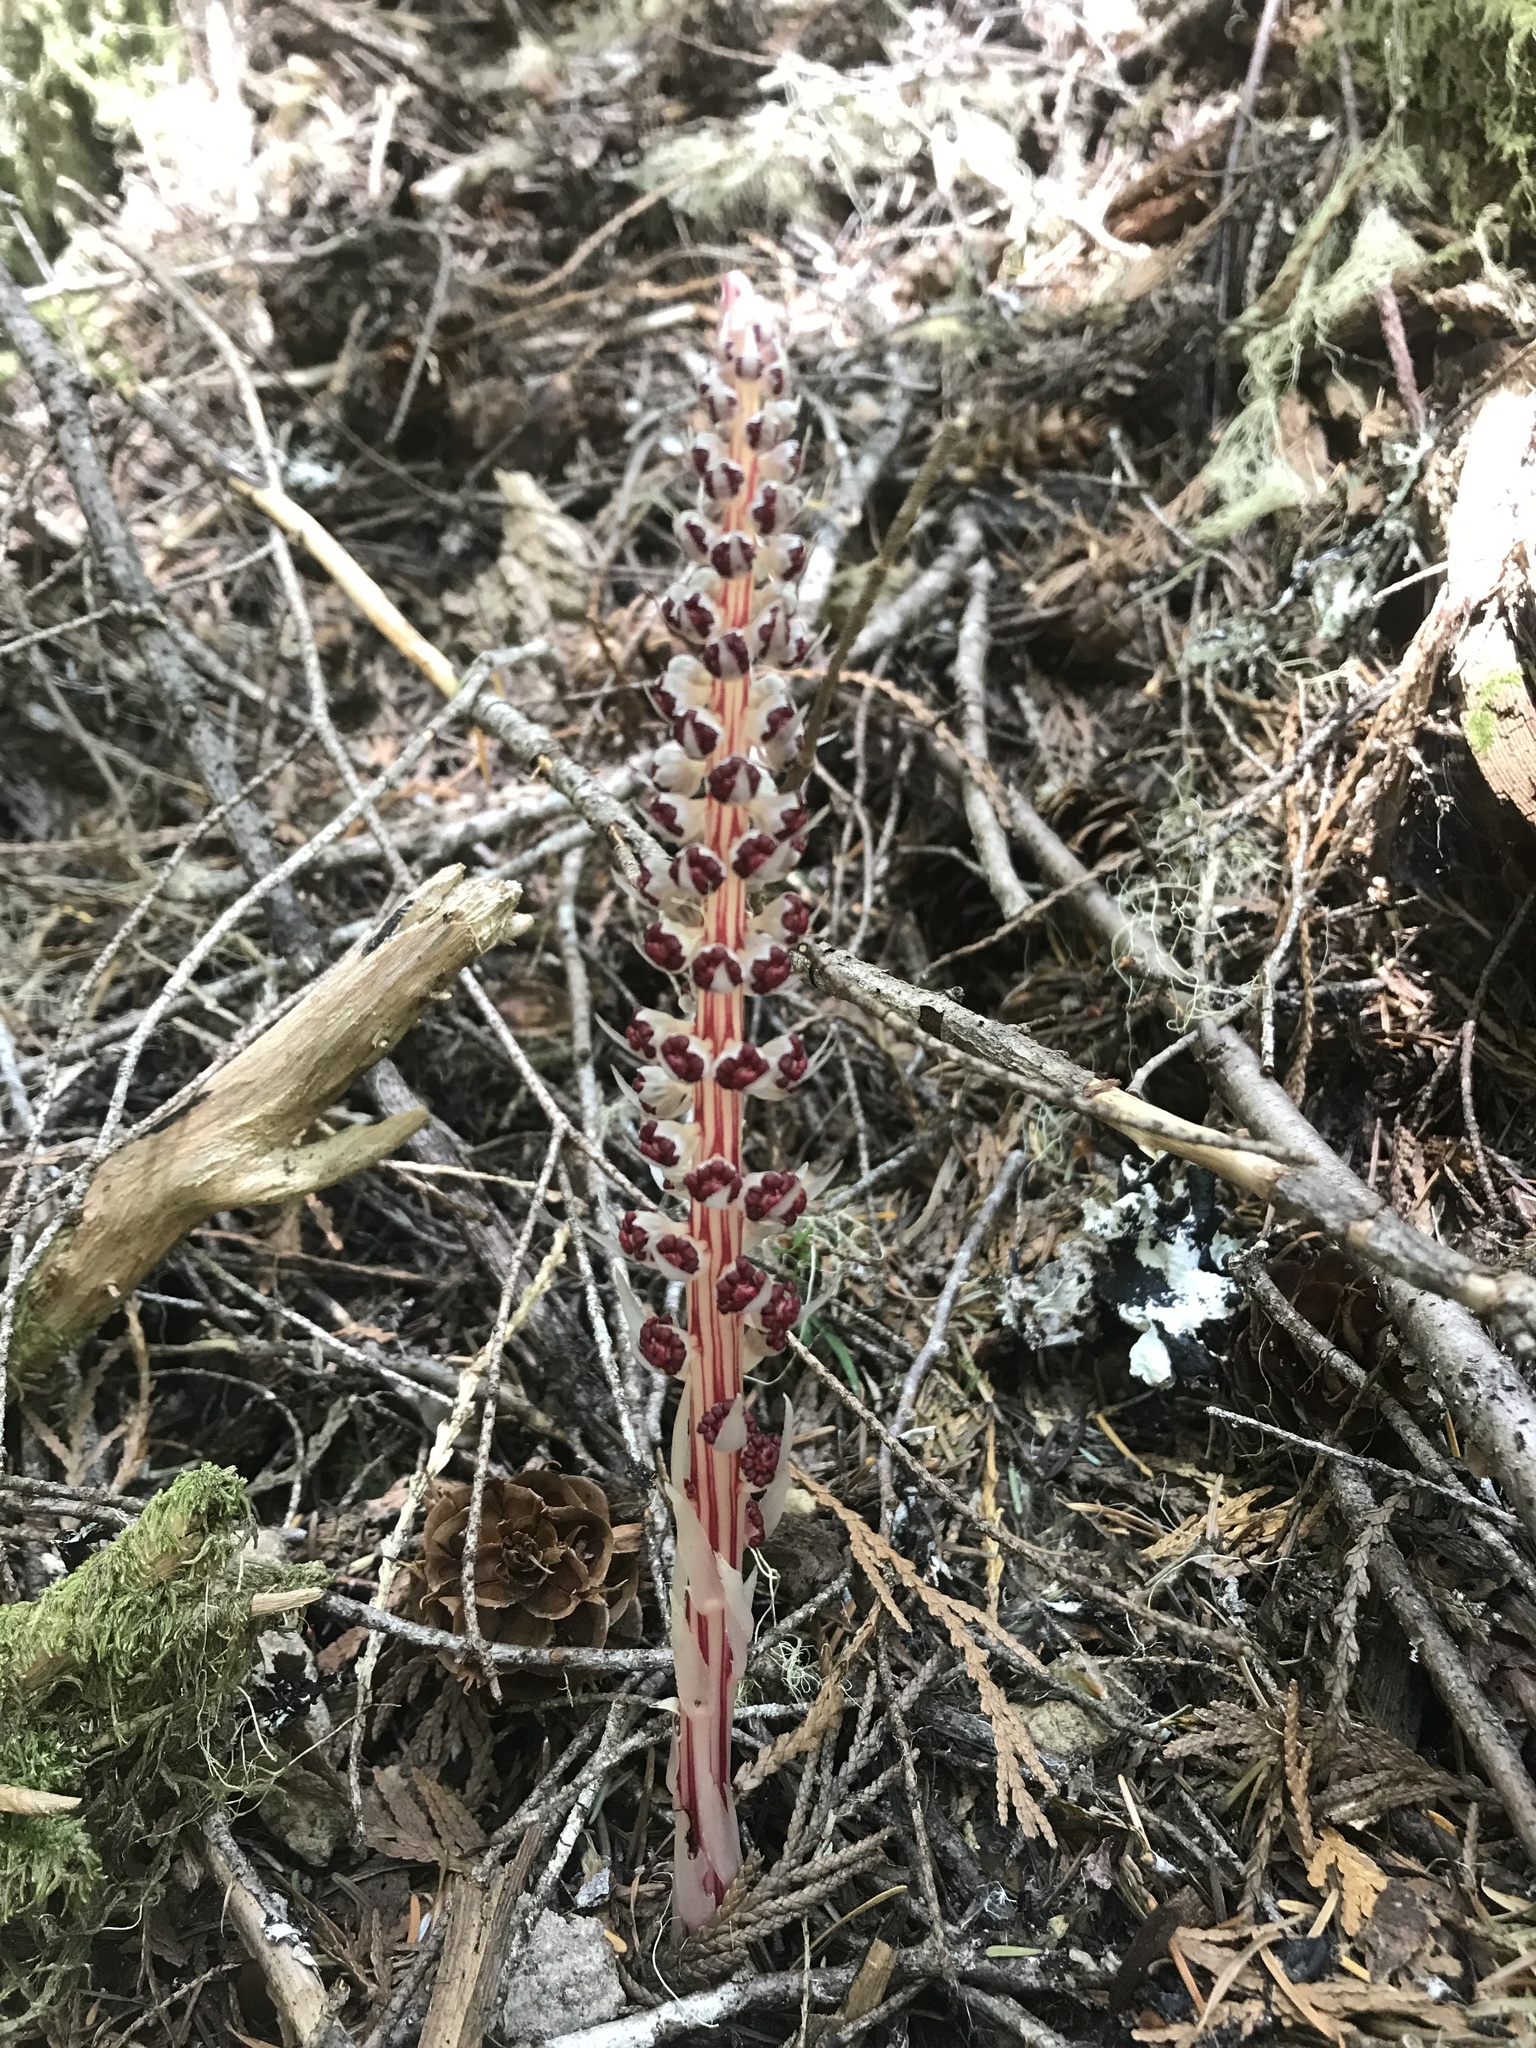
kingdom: Plantae
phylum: Tracheophyta
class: Magnoliopsida
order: Ericales
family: Ericaceae
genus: Allotropa
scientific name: Allotropa virgata
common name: Candy-striped allotropa
